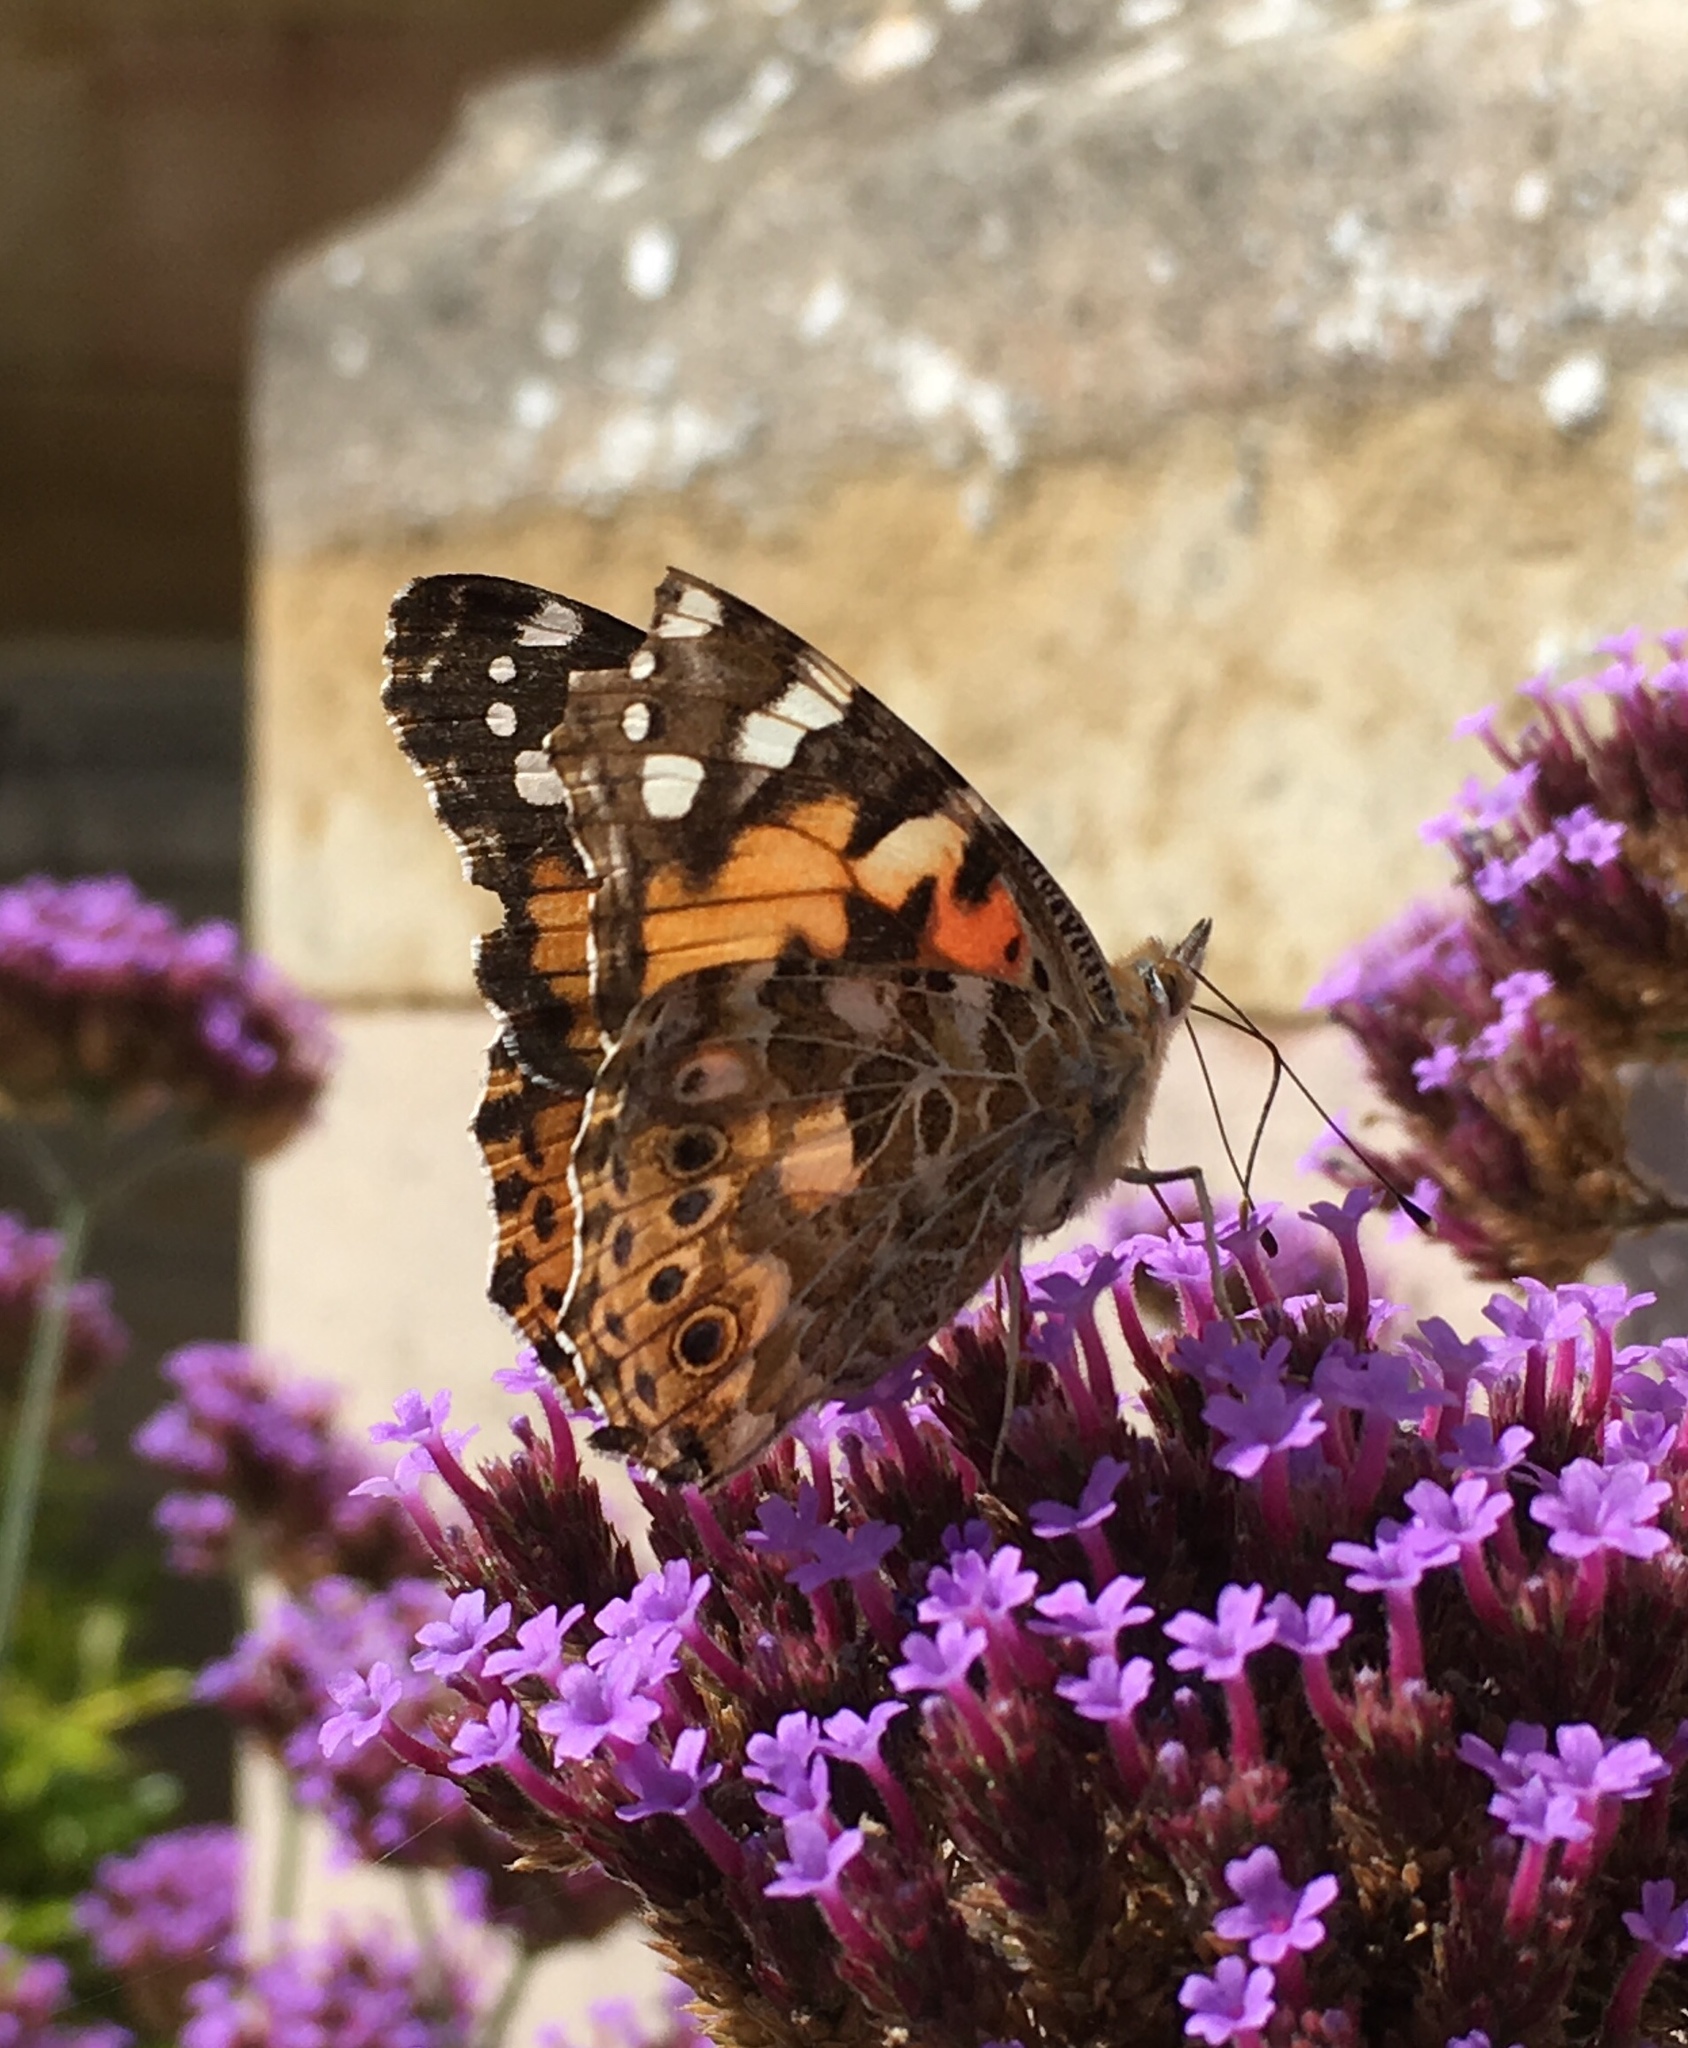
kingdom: Animalia
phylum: Arthropoda
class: Insecta
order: Lepidoptera
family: Nymphalidae
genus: Vanessa
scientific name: Vanessa cardui
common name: Painted lady
